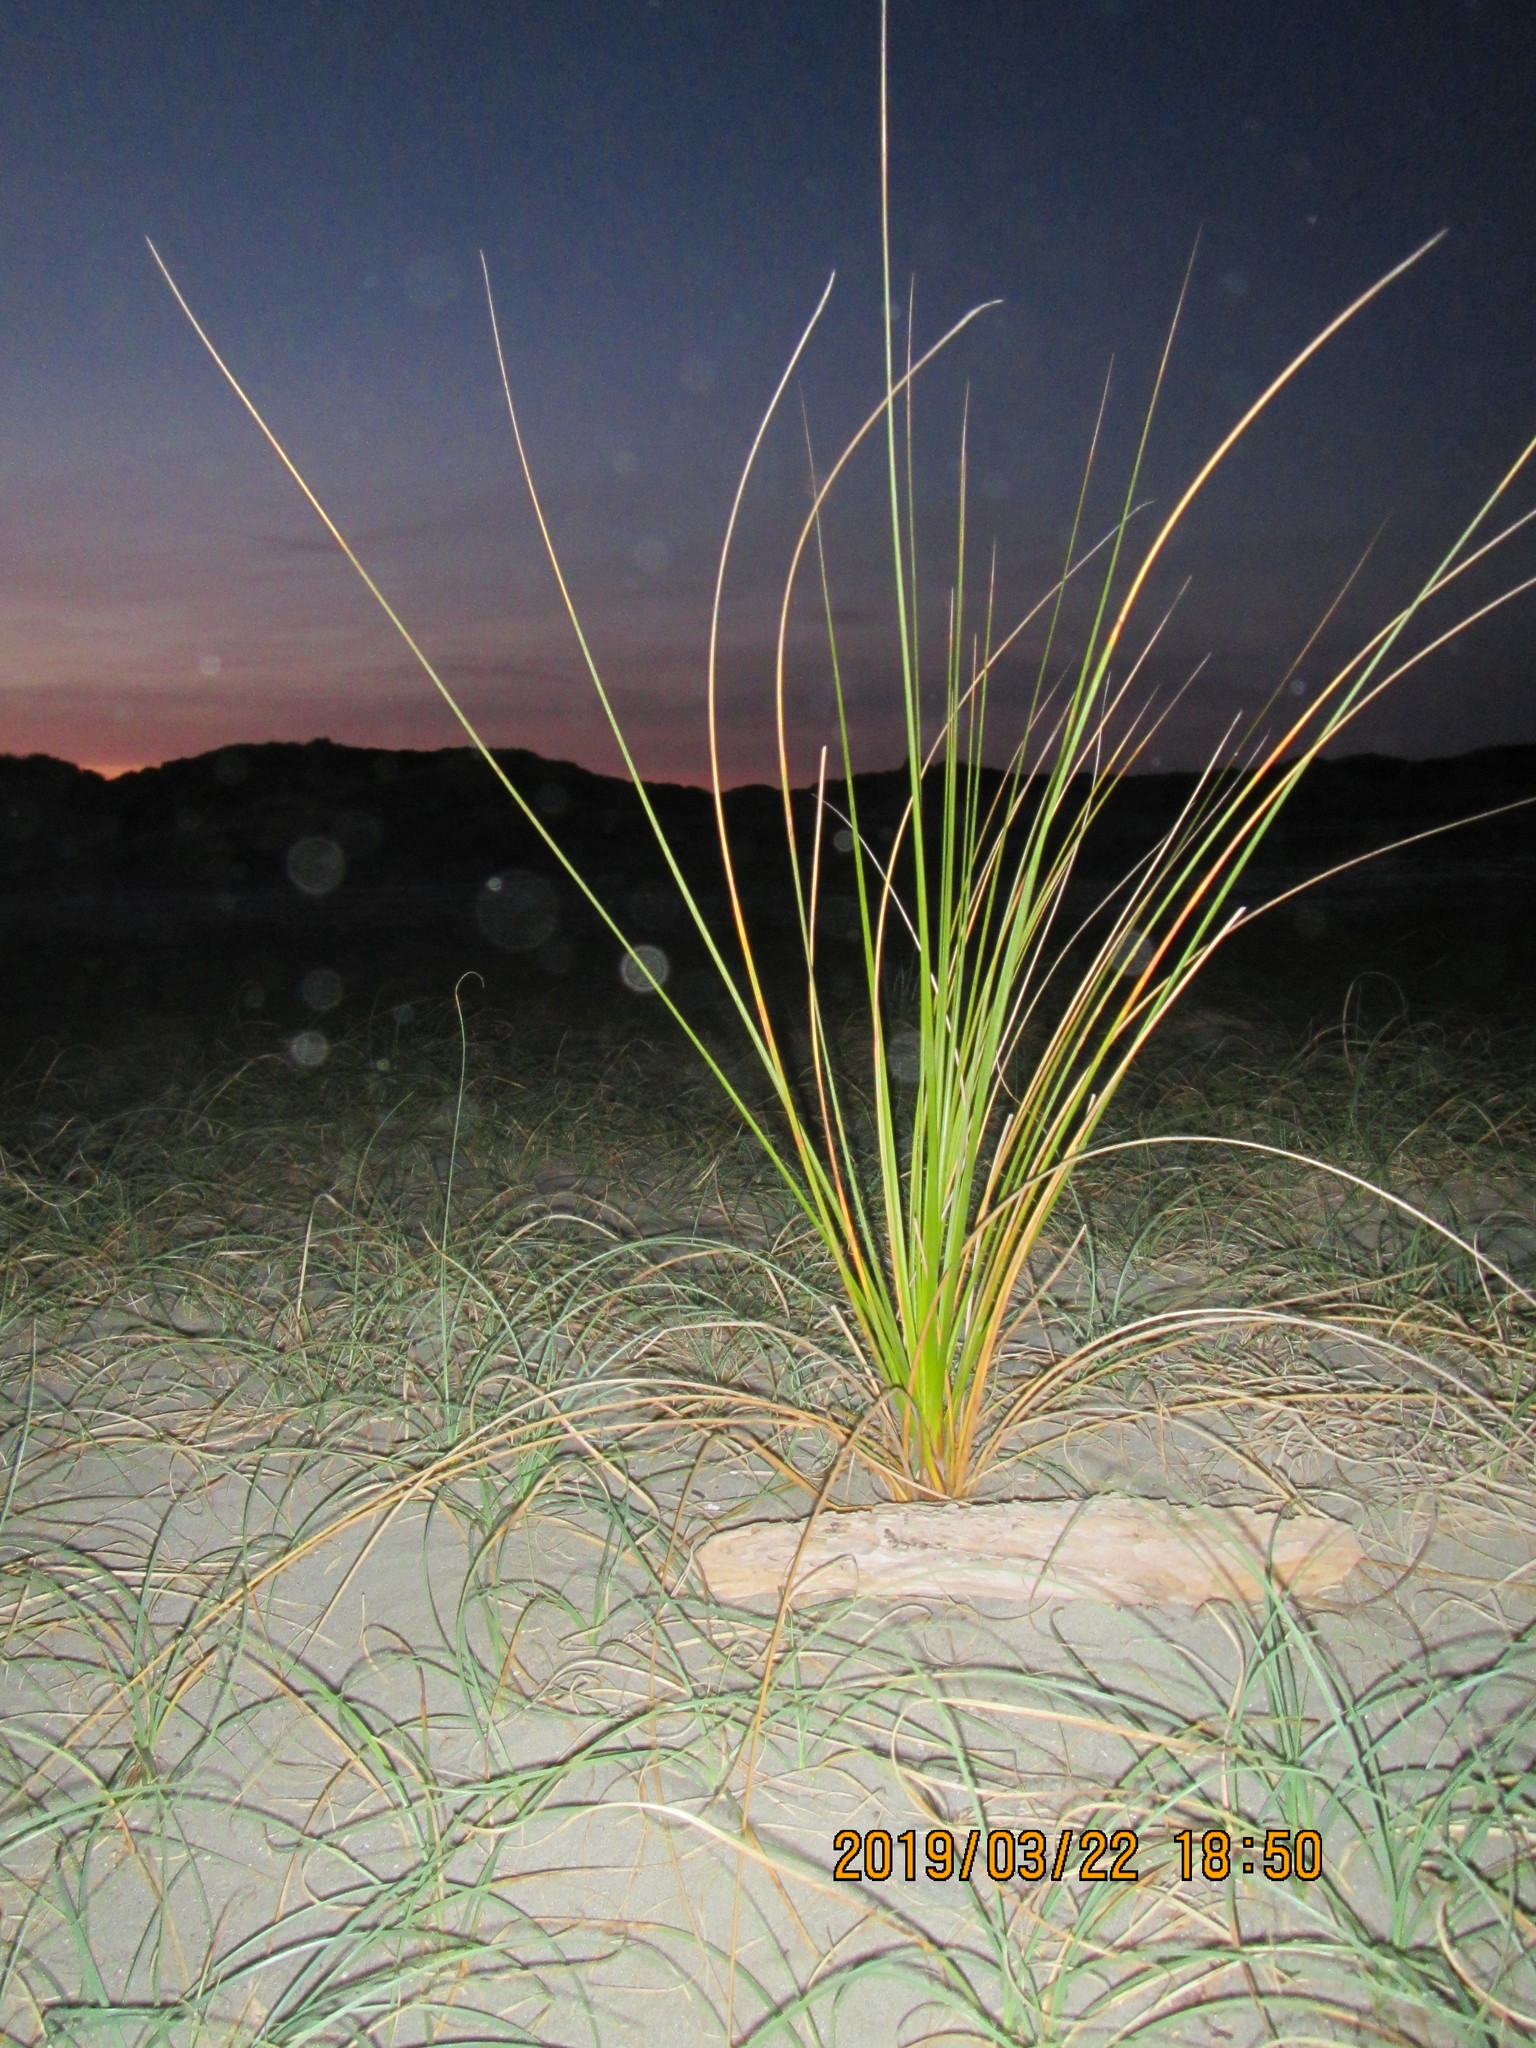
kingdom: Animalia
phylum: Arthropoda
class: Arachnida
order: Araneae
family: Theridiidae
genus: Latrodectus
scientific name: Latrodectus katipo
